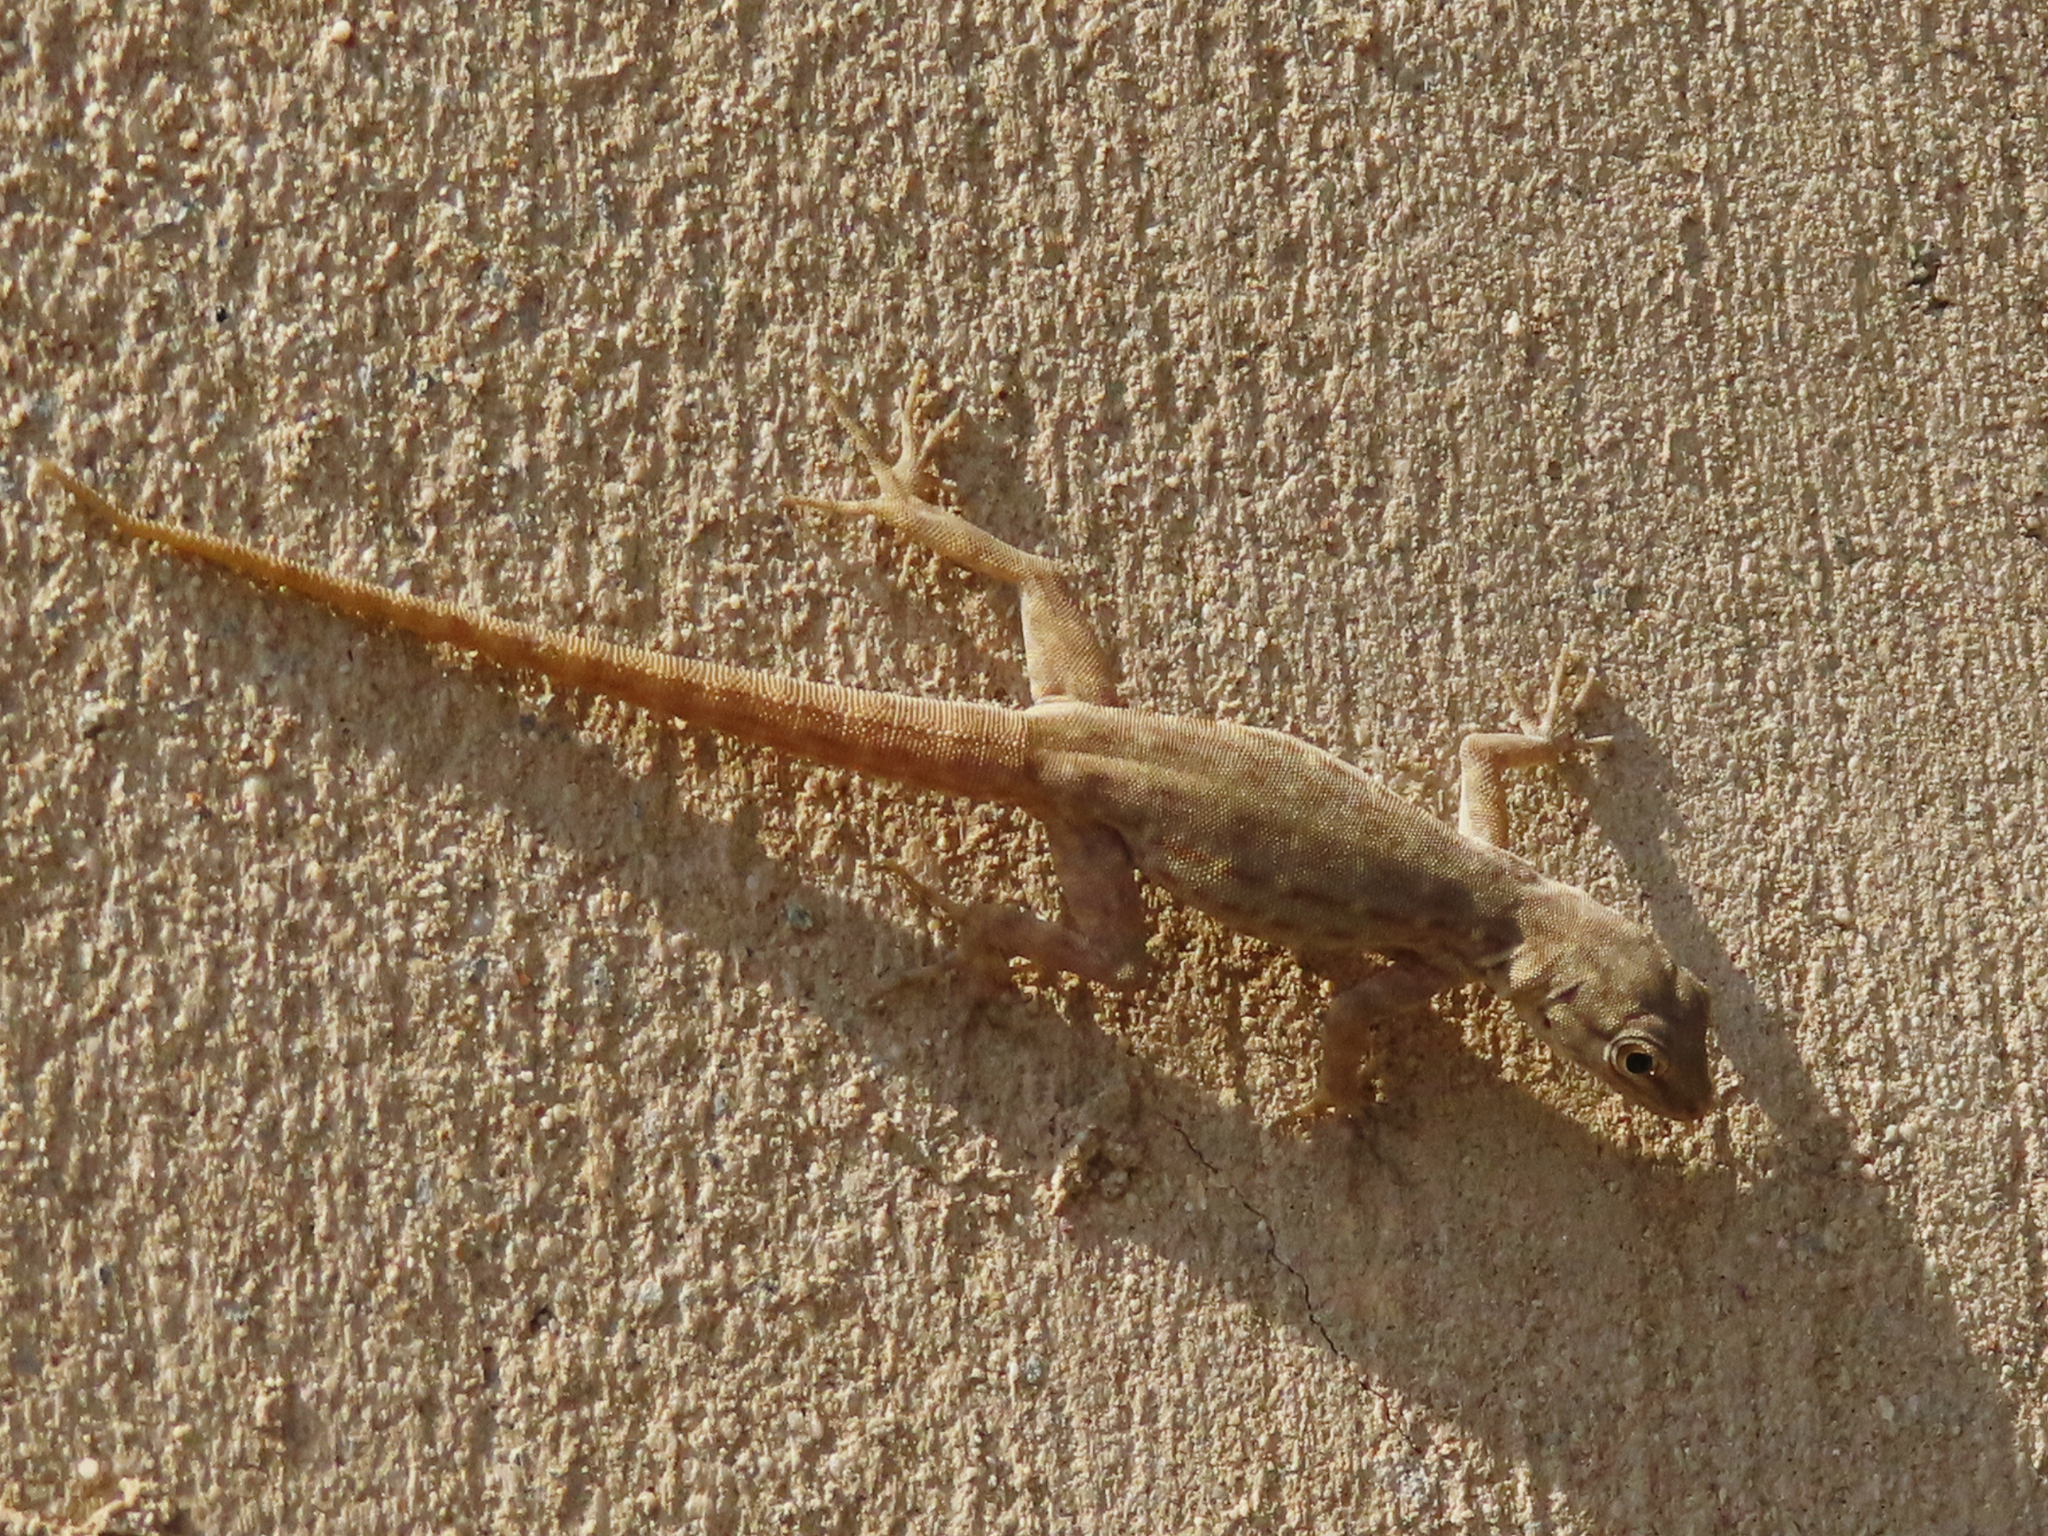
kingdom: Animalia
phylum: Chordata
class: Squamata
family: Sphaerodactylidae
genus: Pristurus
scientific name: Pristurus rupestris
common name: Blanford’s semaphore gecko
